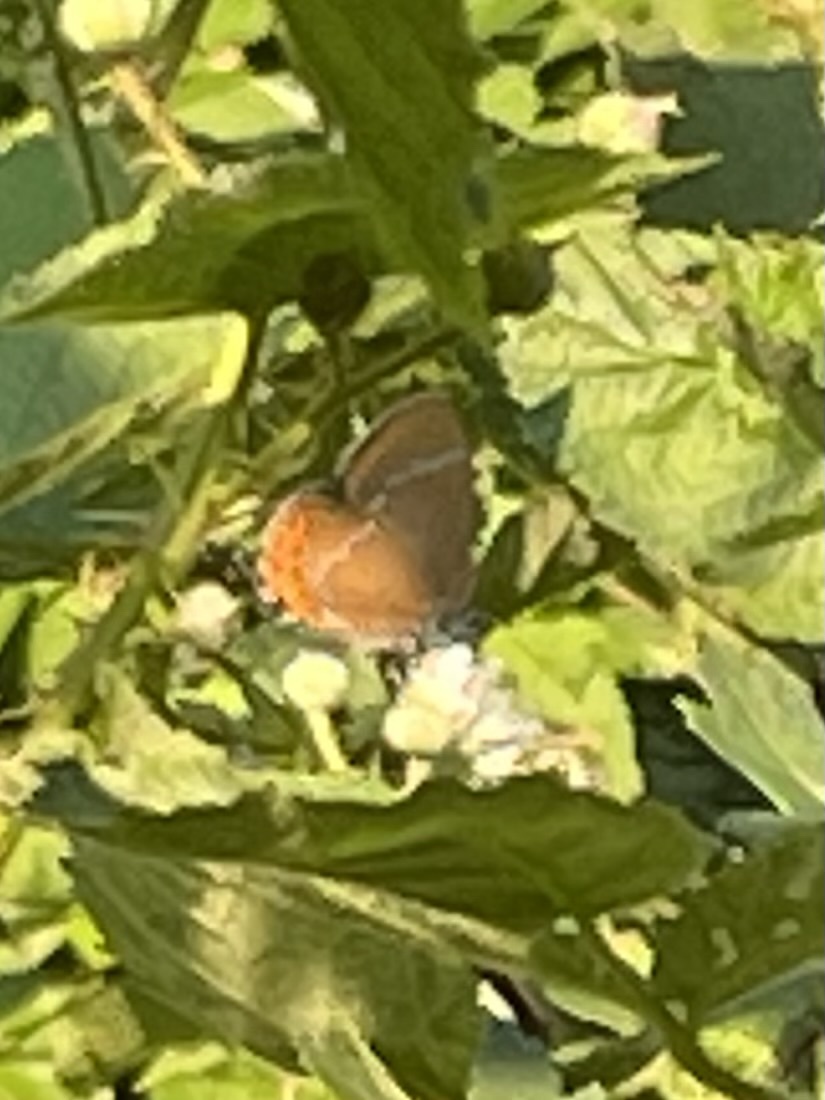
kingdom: Animalia
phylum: Arthropoda
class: Insecta
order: Lepidoptera
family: Lycaenidae
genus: Fixsenia
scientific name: Fixsenia pruni
